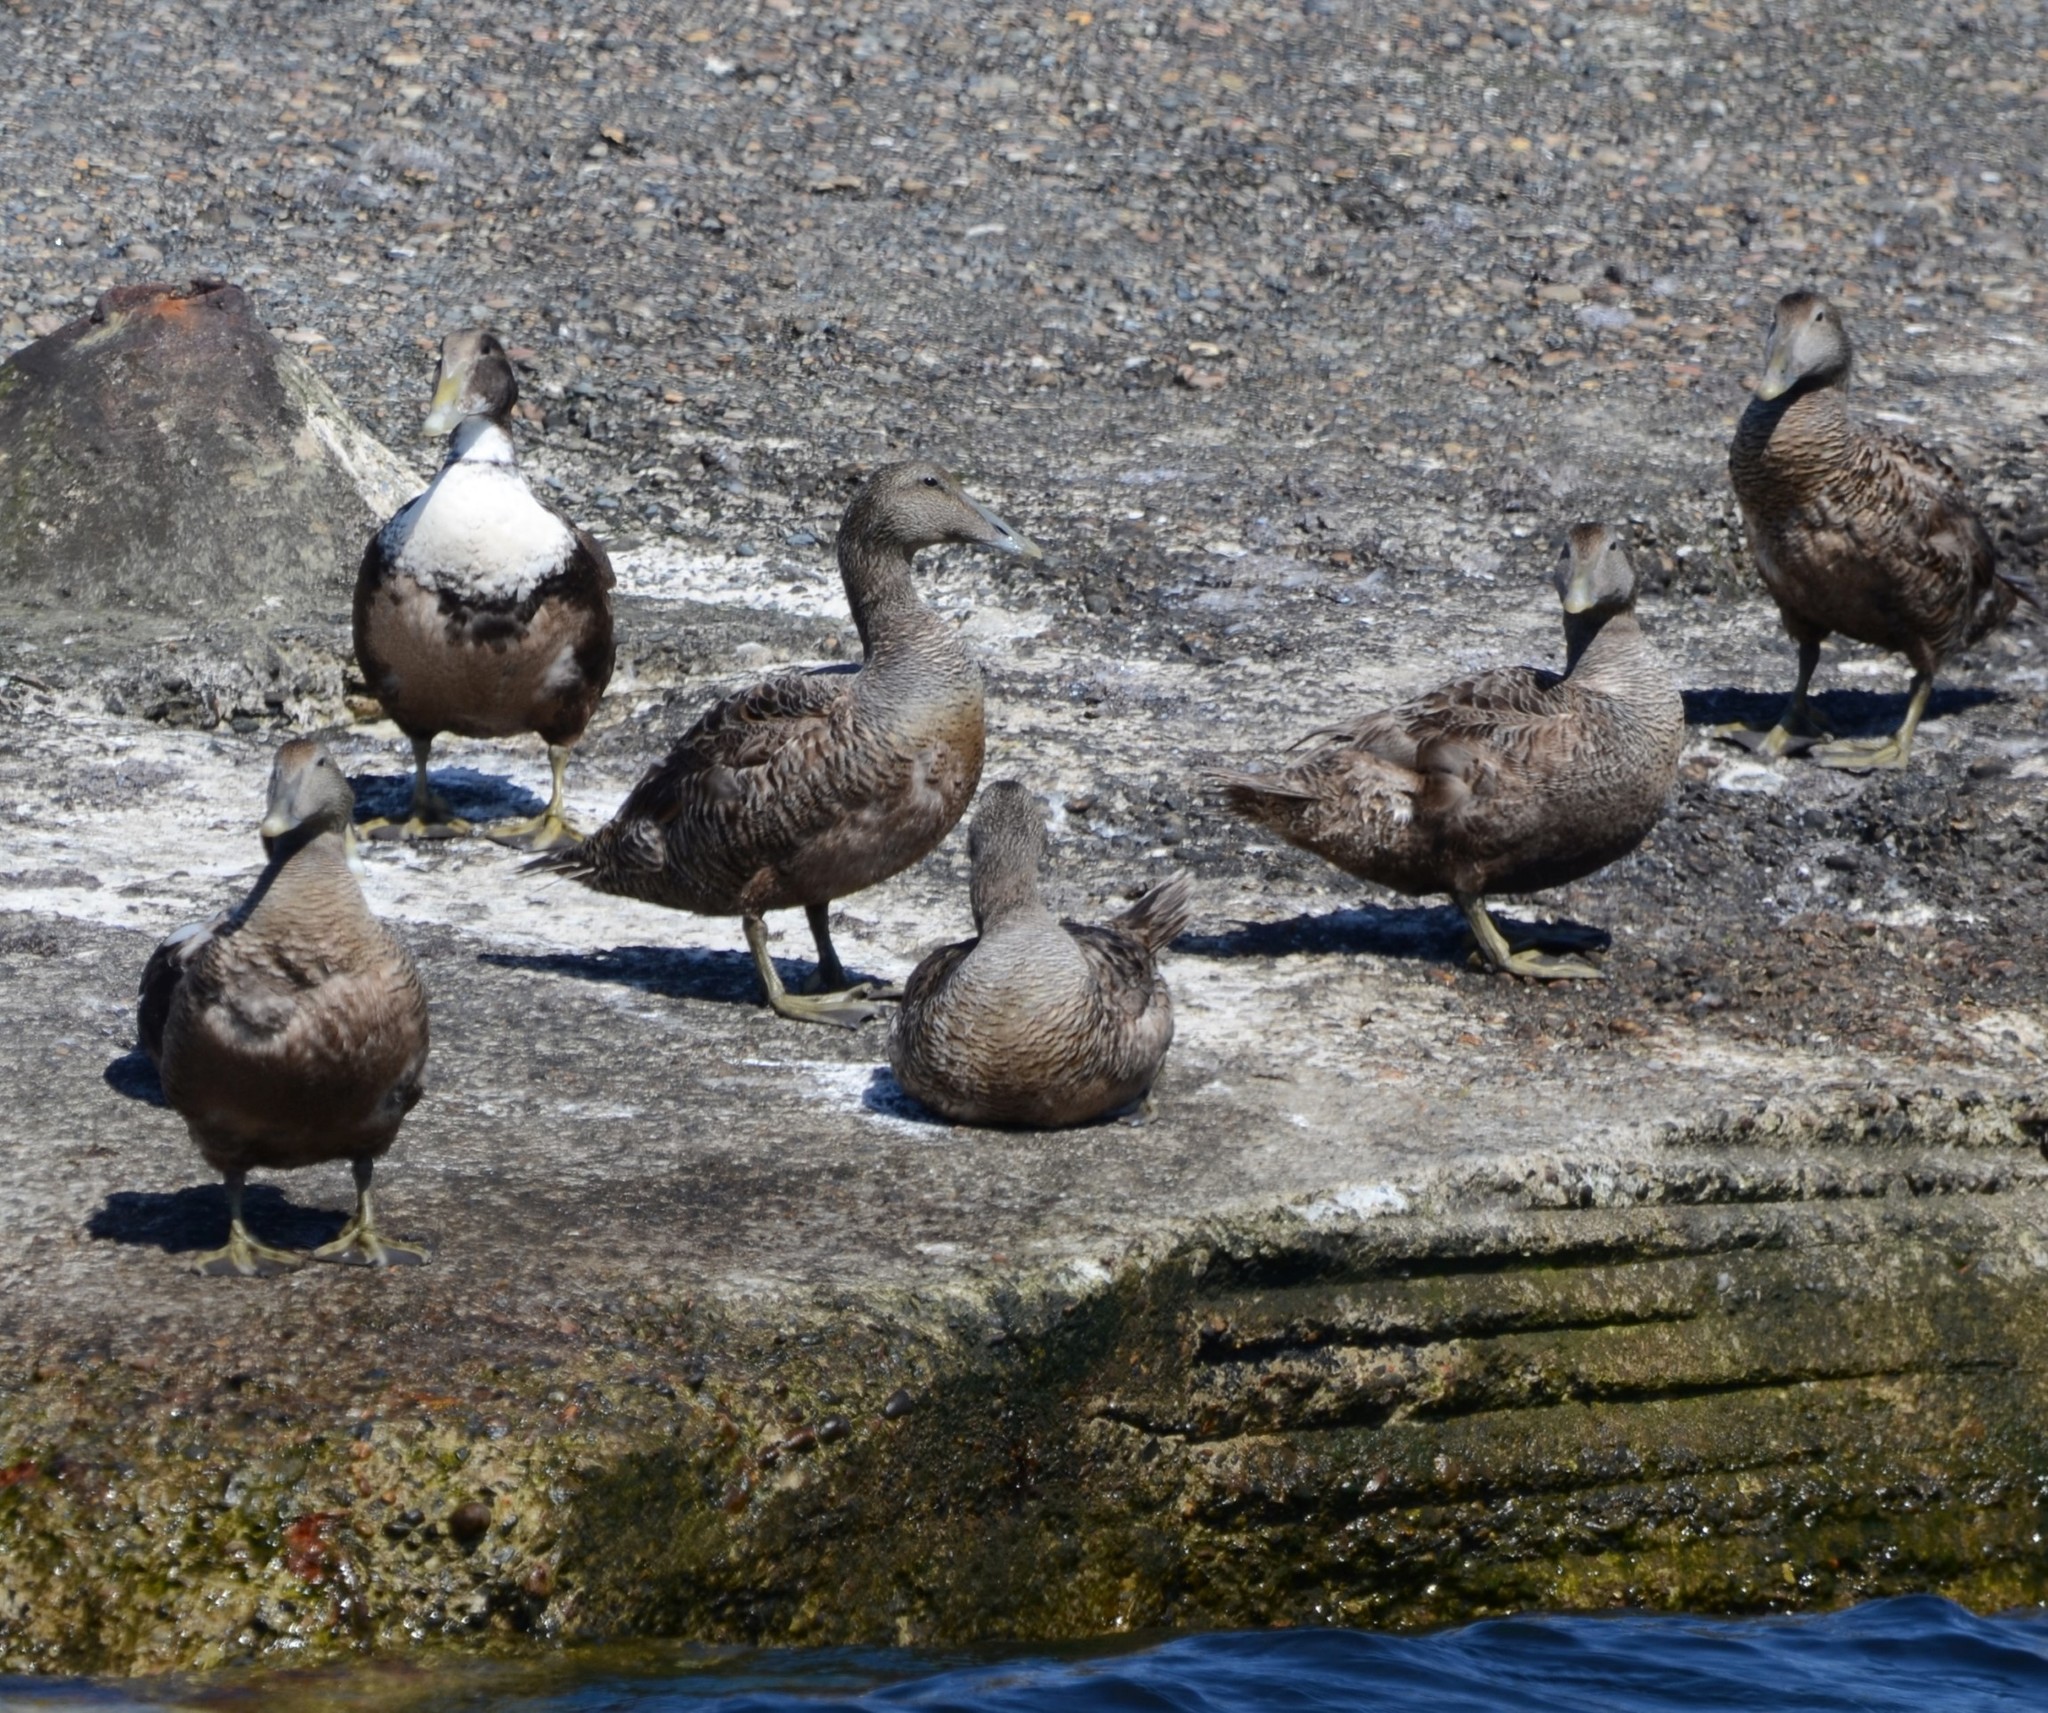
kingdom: Animalia
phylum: Chordata
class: Aves
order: Anseriformes
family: Anatidae
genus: Somateria
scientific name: Somateria mollissima
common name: Common eider
